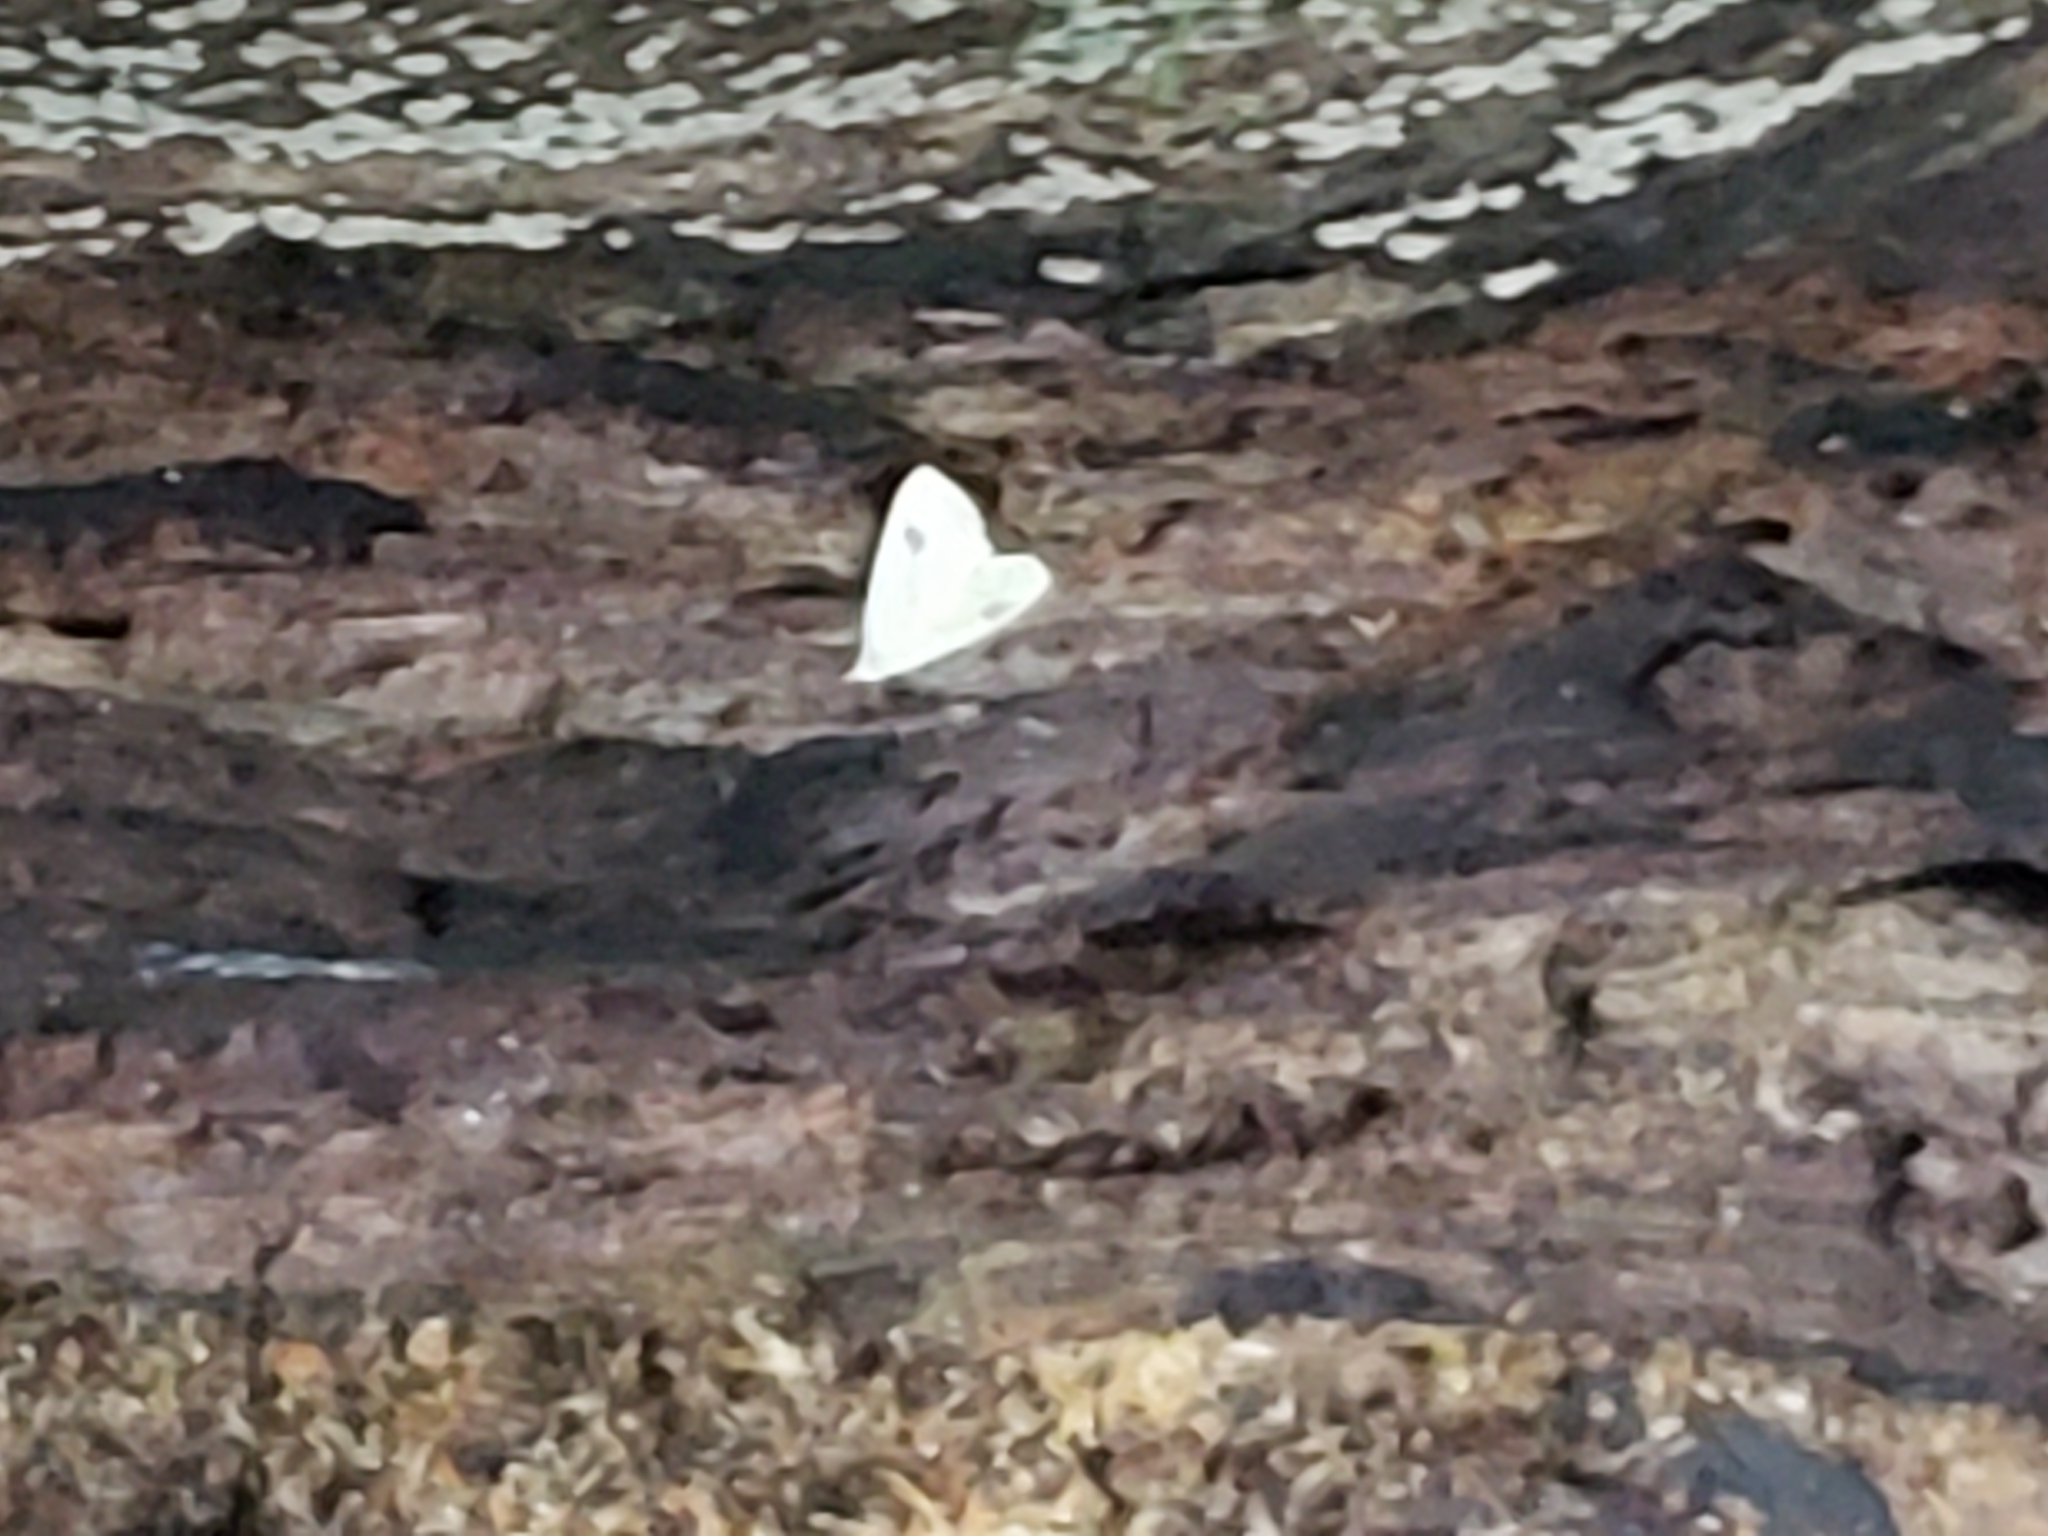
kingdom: Animalia
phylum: Arthropoda
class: Insecta
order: Lepidoptera
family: Erebidae
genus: Rivula
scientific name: Rivula propinqualis
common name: Spotted grass moth
